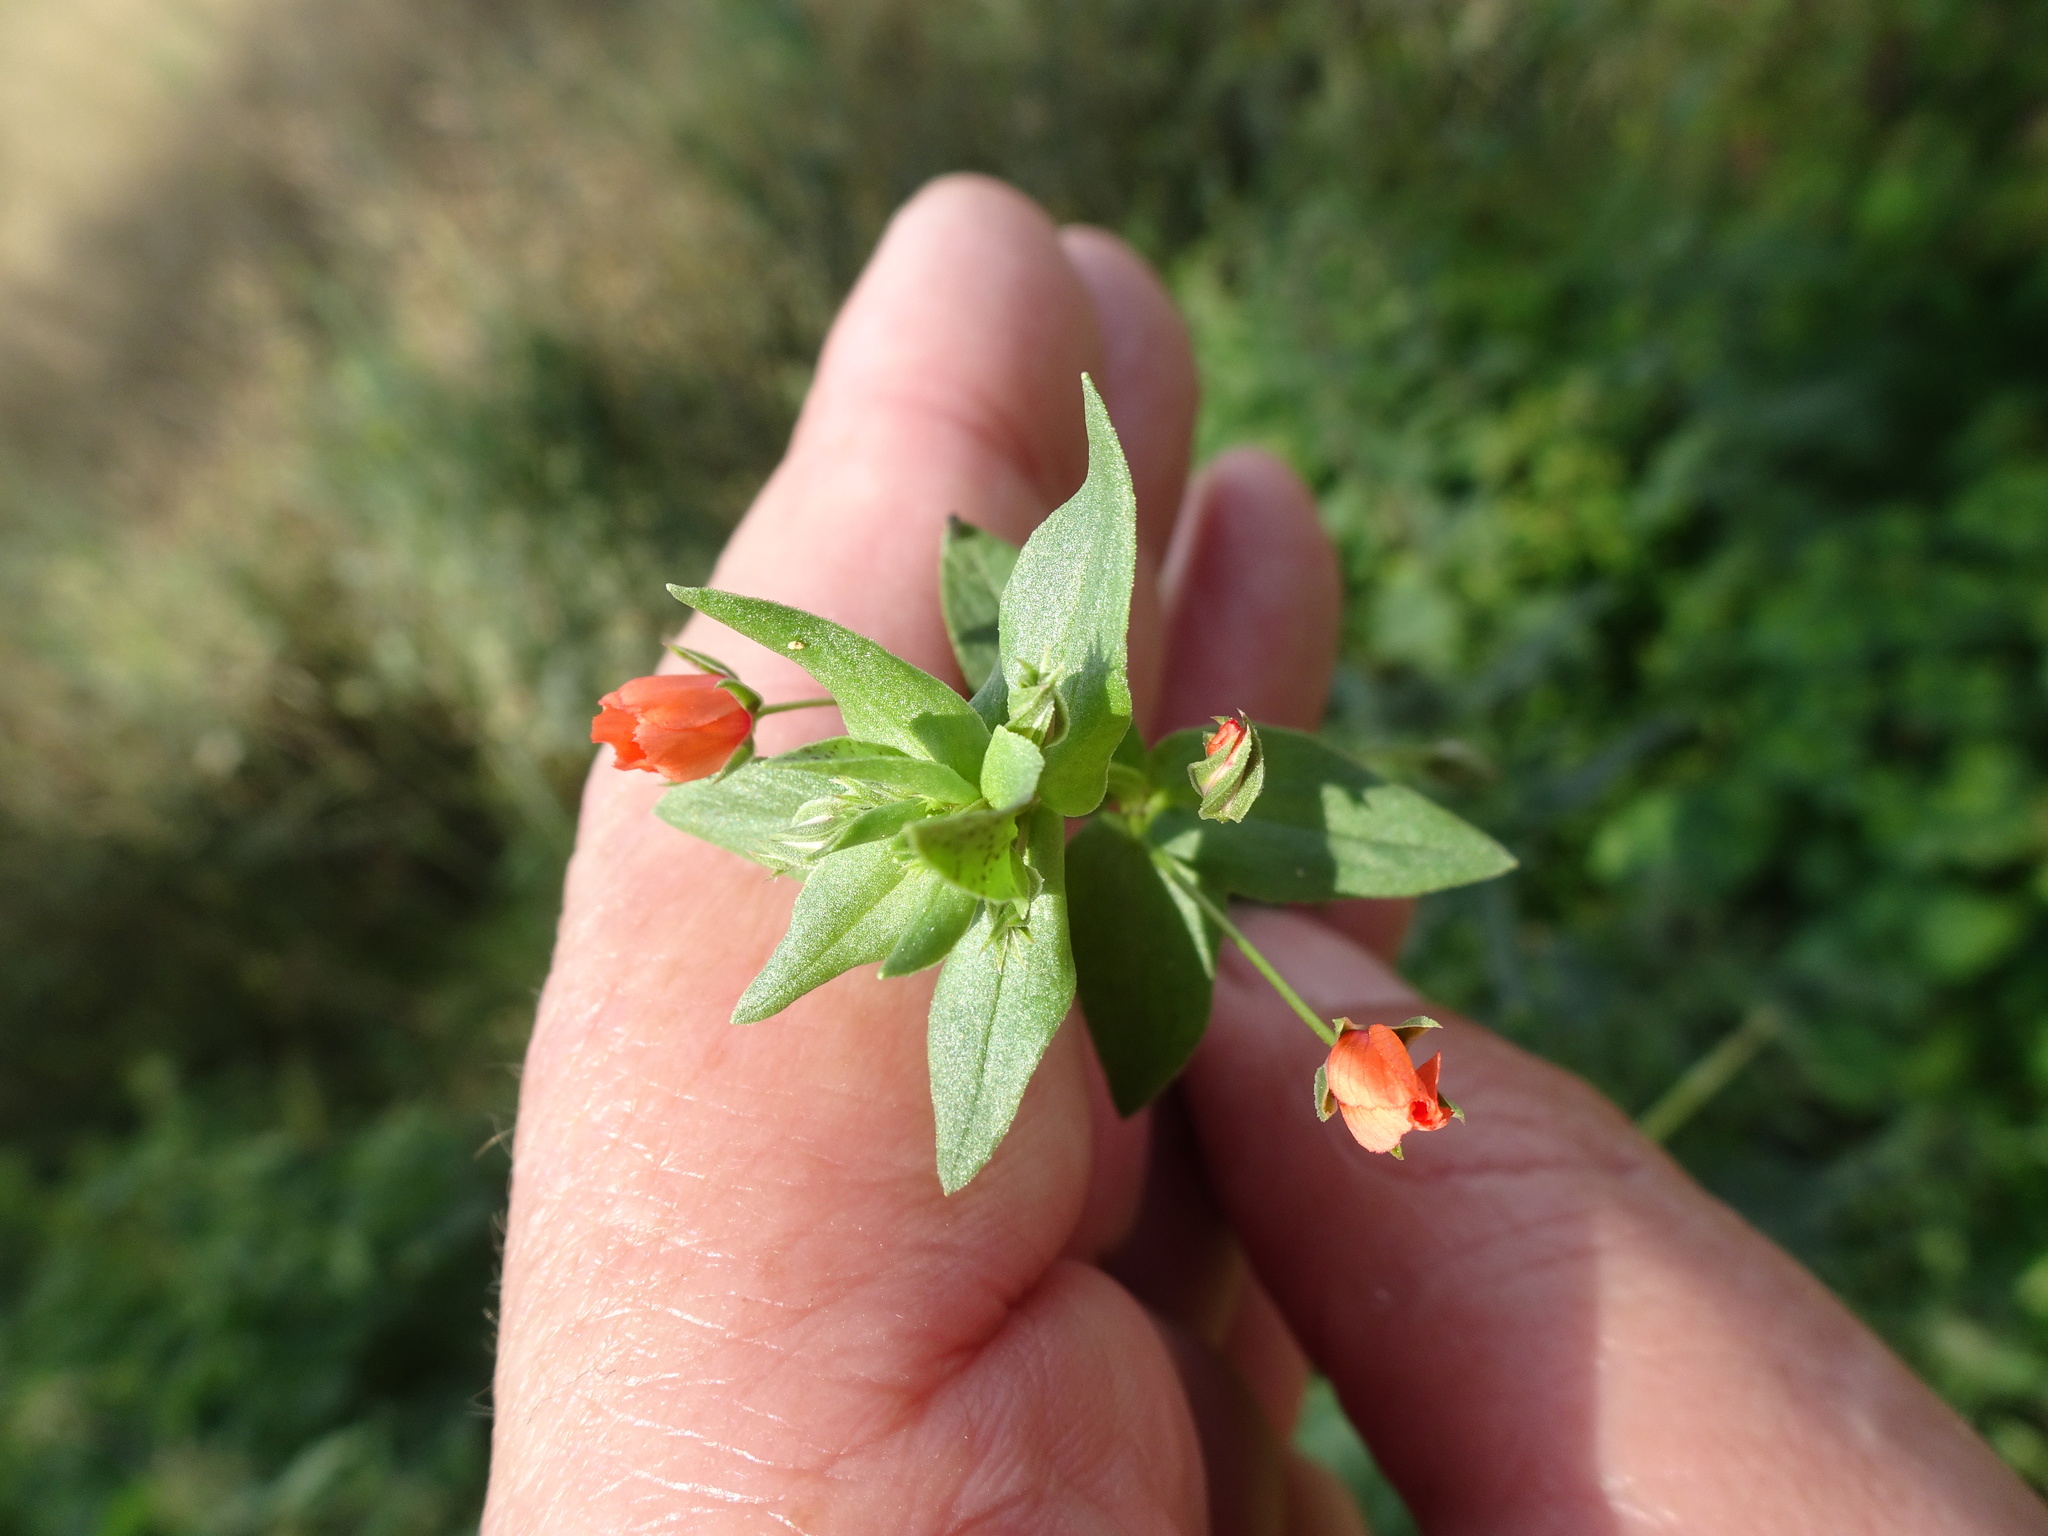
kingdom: Plantae
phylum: Tracheophyta
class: Magnoliopsida
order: Ericales
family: Primulaceae
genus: Lysimachia
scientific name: Lysimachia arvensis
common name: Scarlet pimpernel
